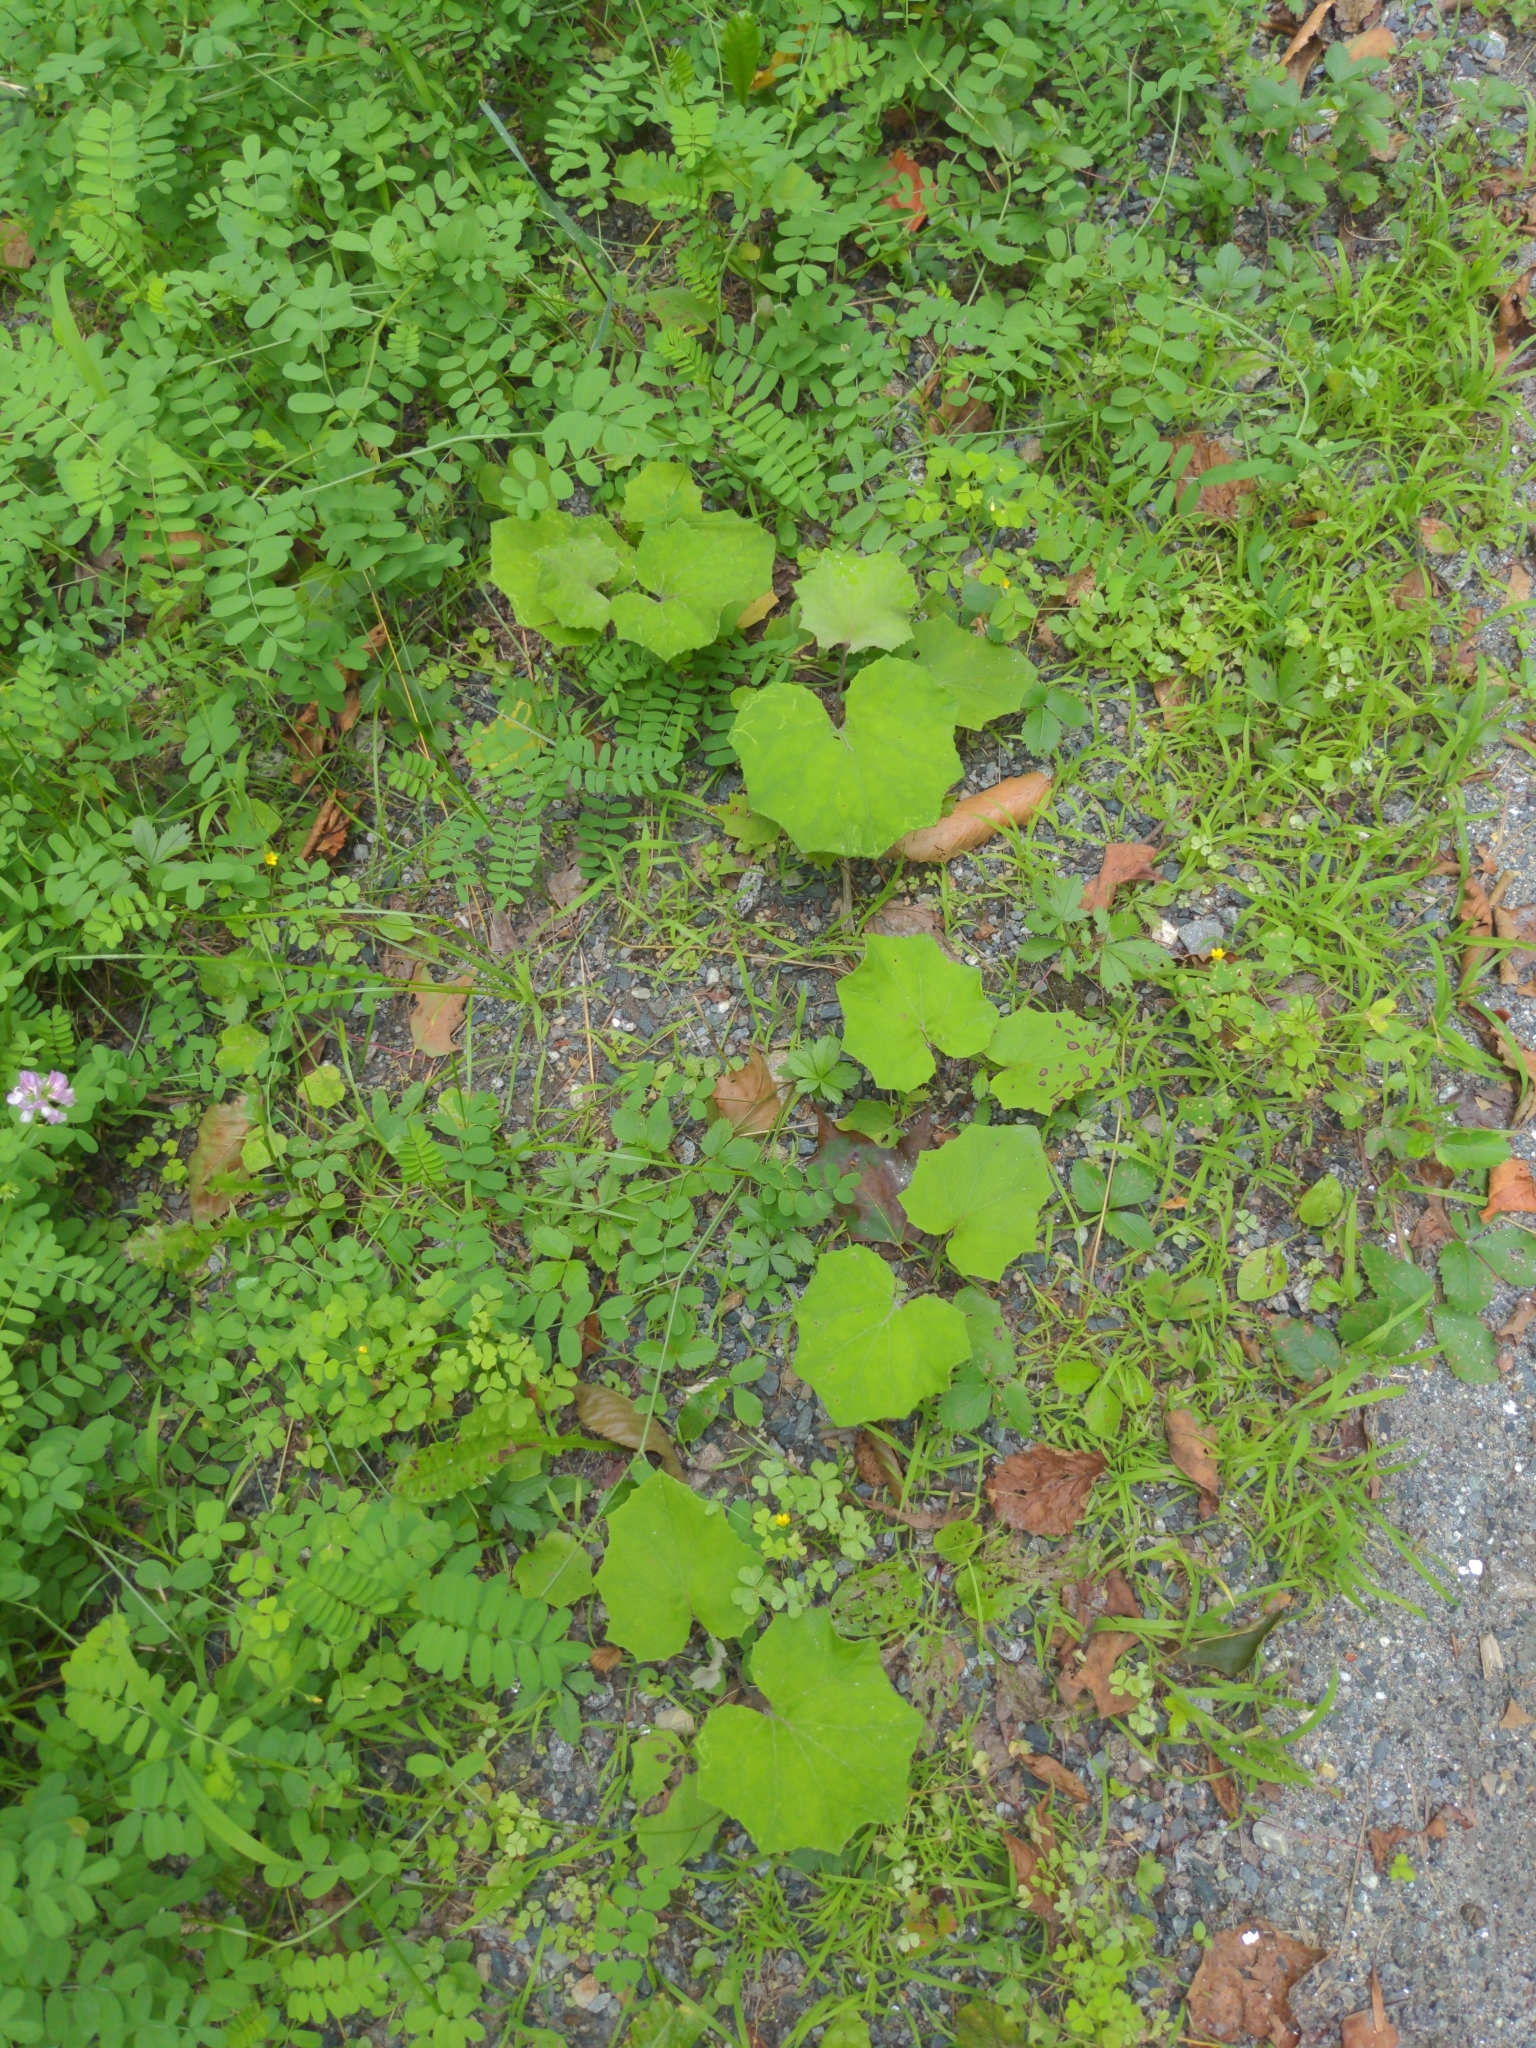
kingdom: Plantae
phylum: Tracheophyta
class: Magnoliopsida
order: Asterales
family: Asteraceae
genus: Tussilago
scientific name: Tussilago farfara
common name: Coltsfoot
